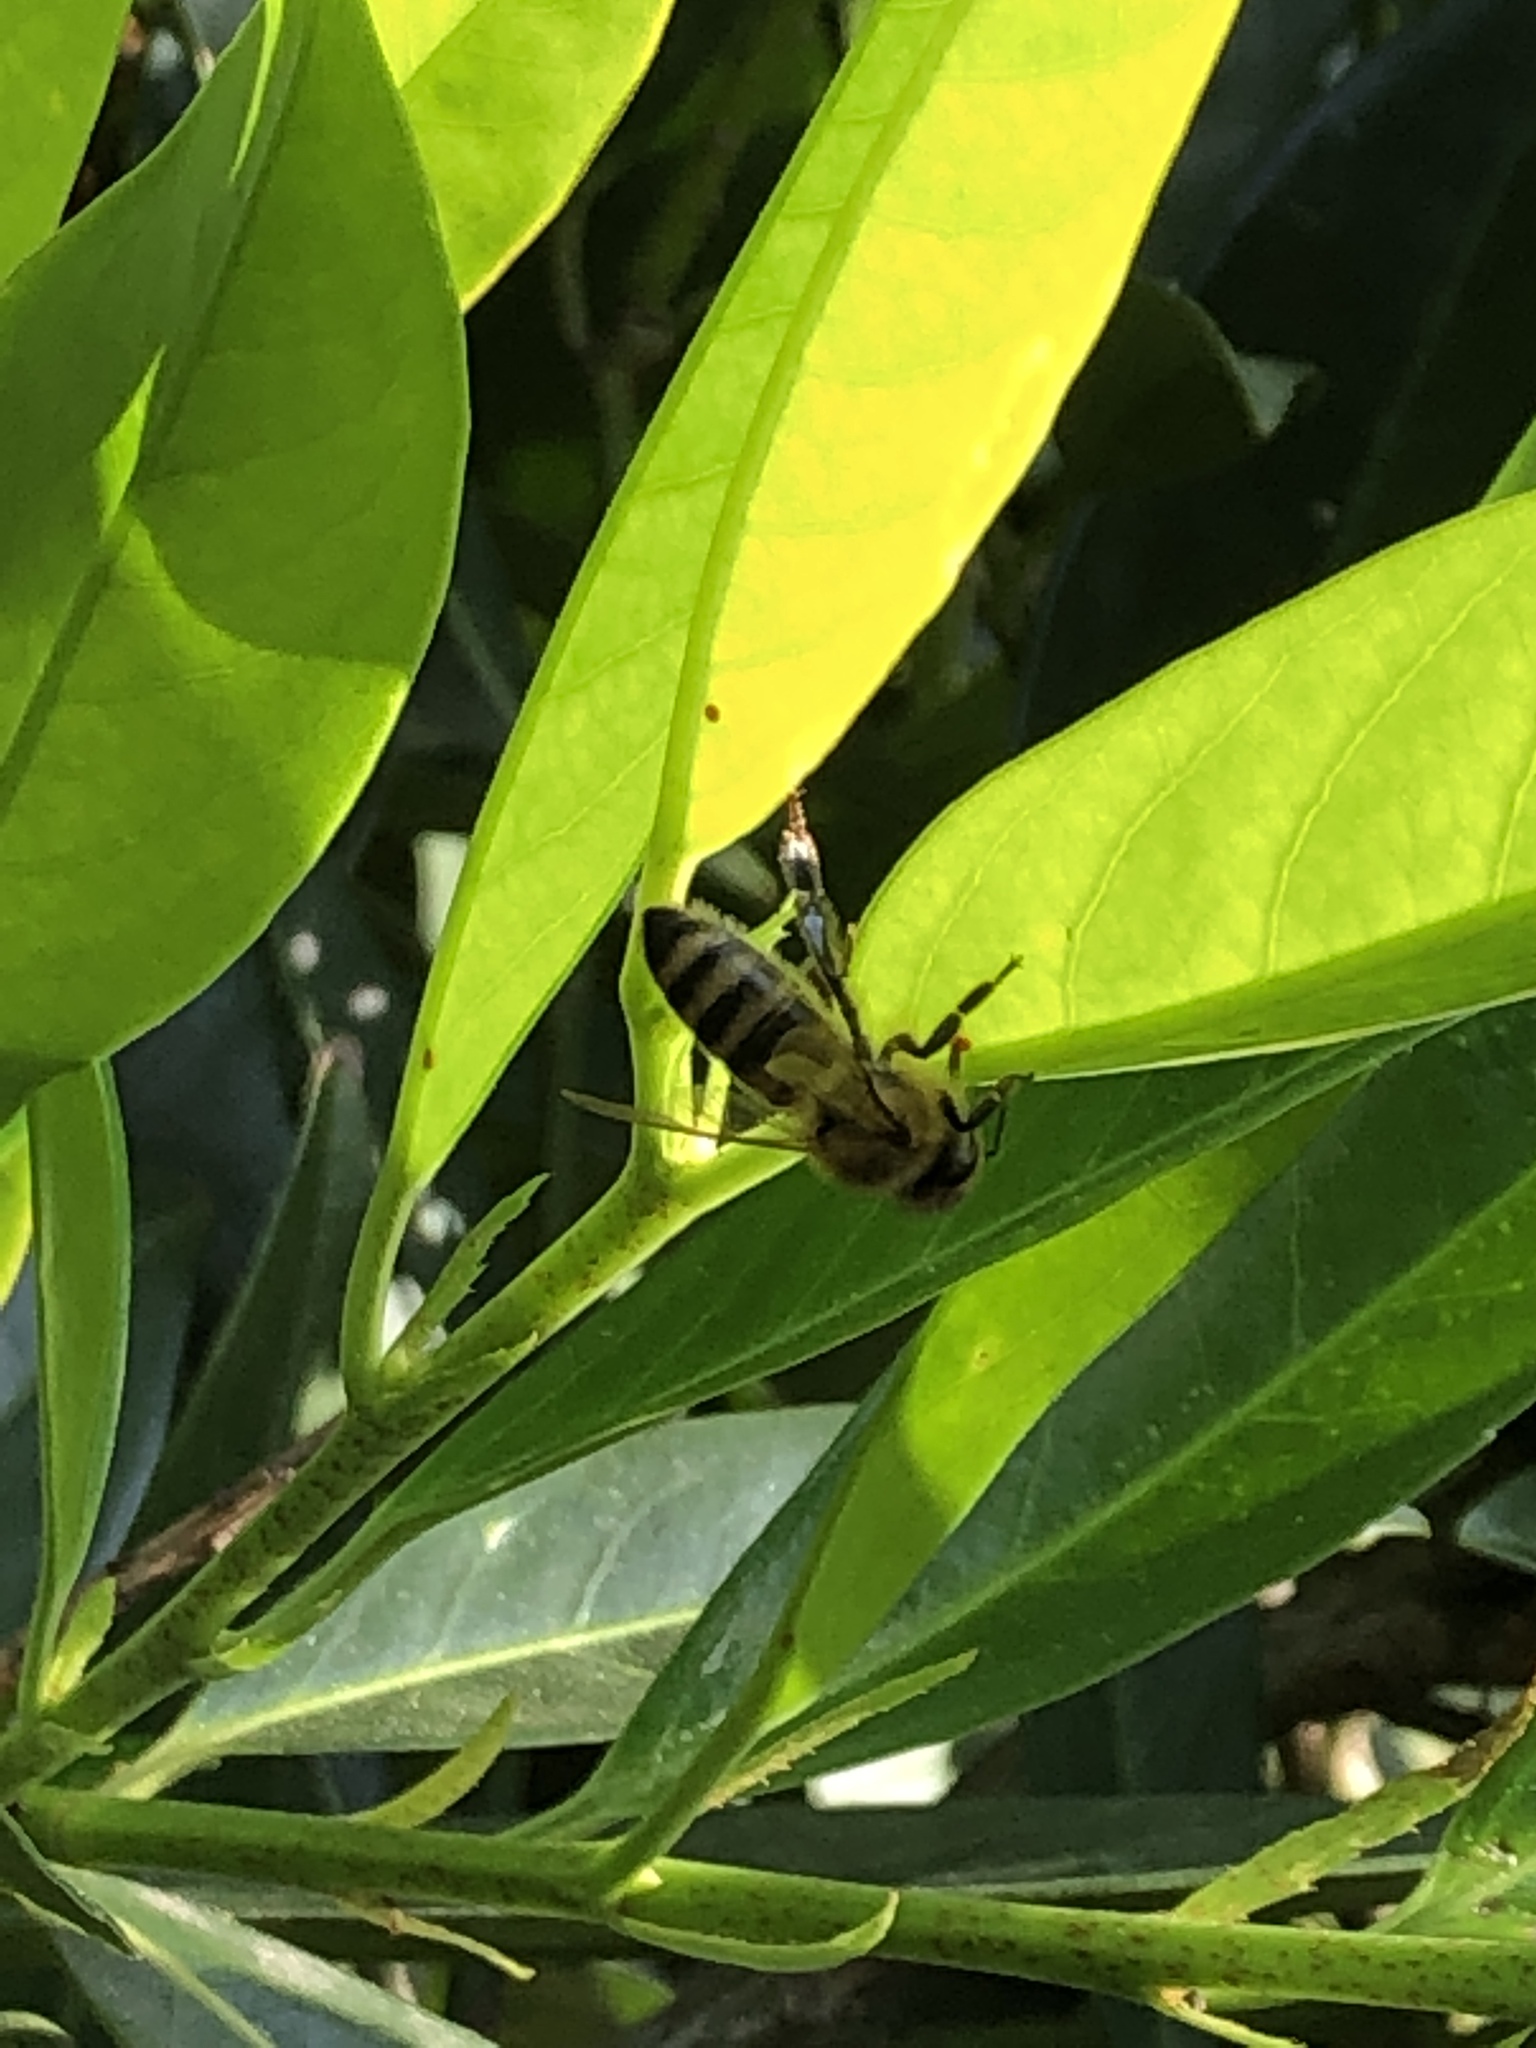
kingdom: Animalia
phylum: Arthropoda
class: Insecta
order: Hymenoptera
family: Apidae
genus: Apis
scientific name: Apis mellifera
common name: Honey bee
